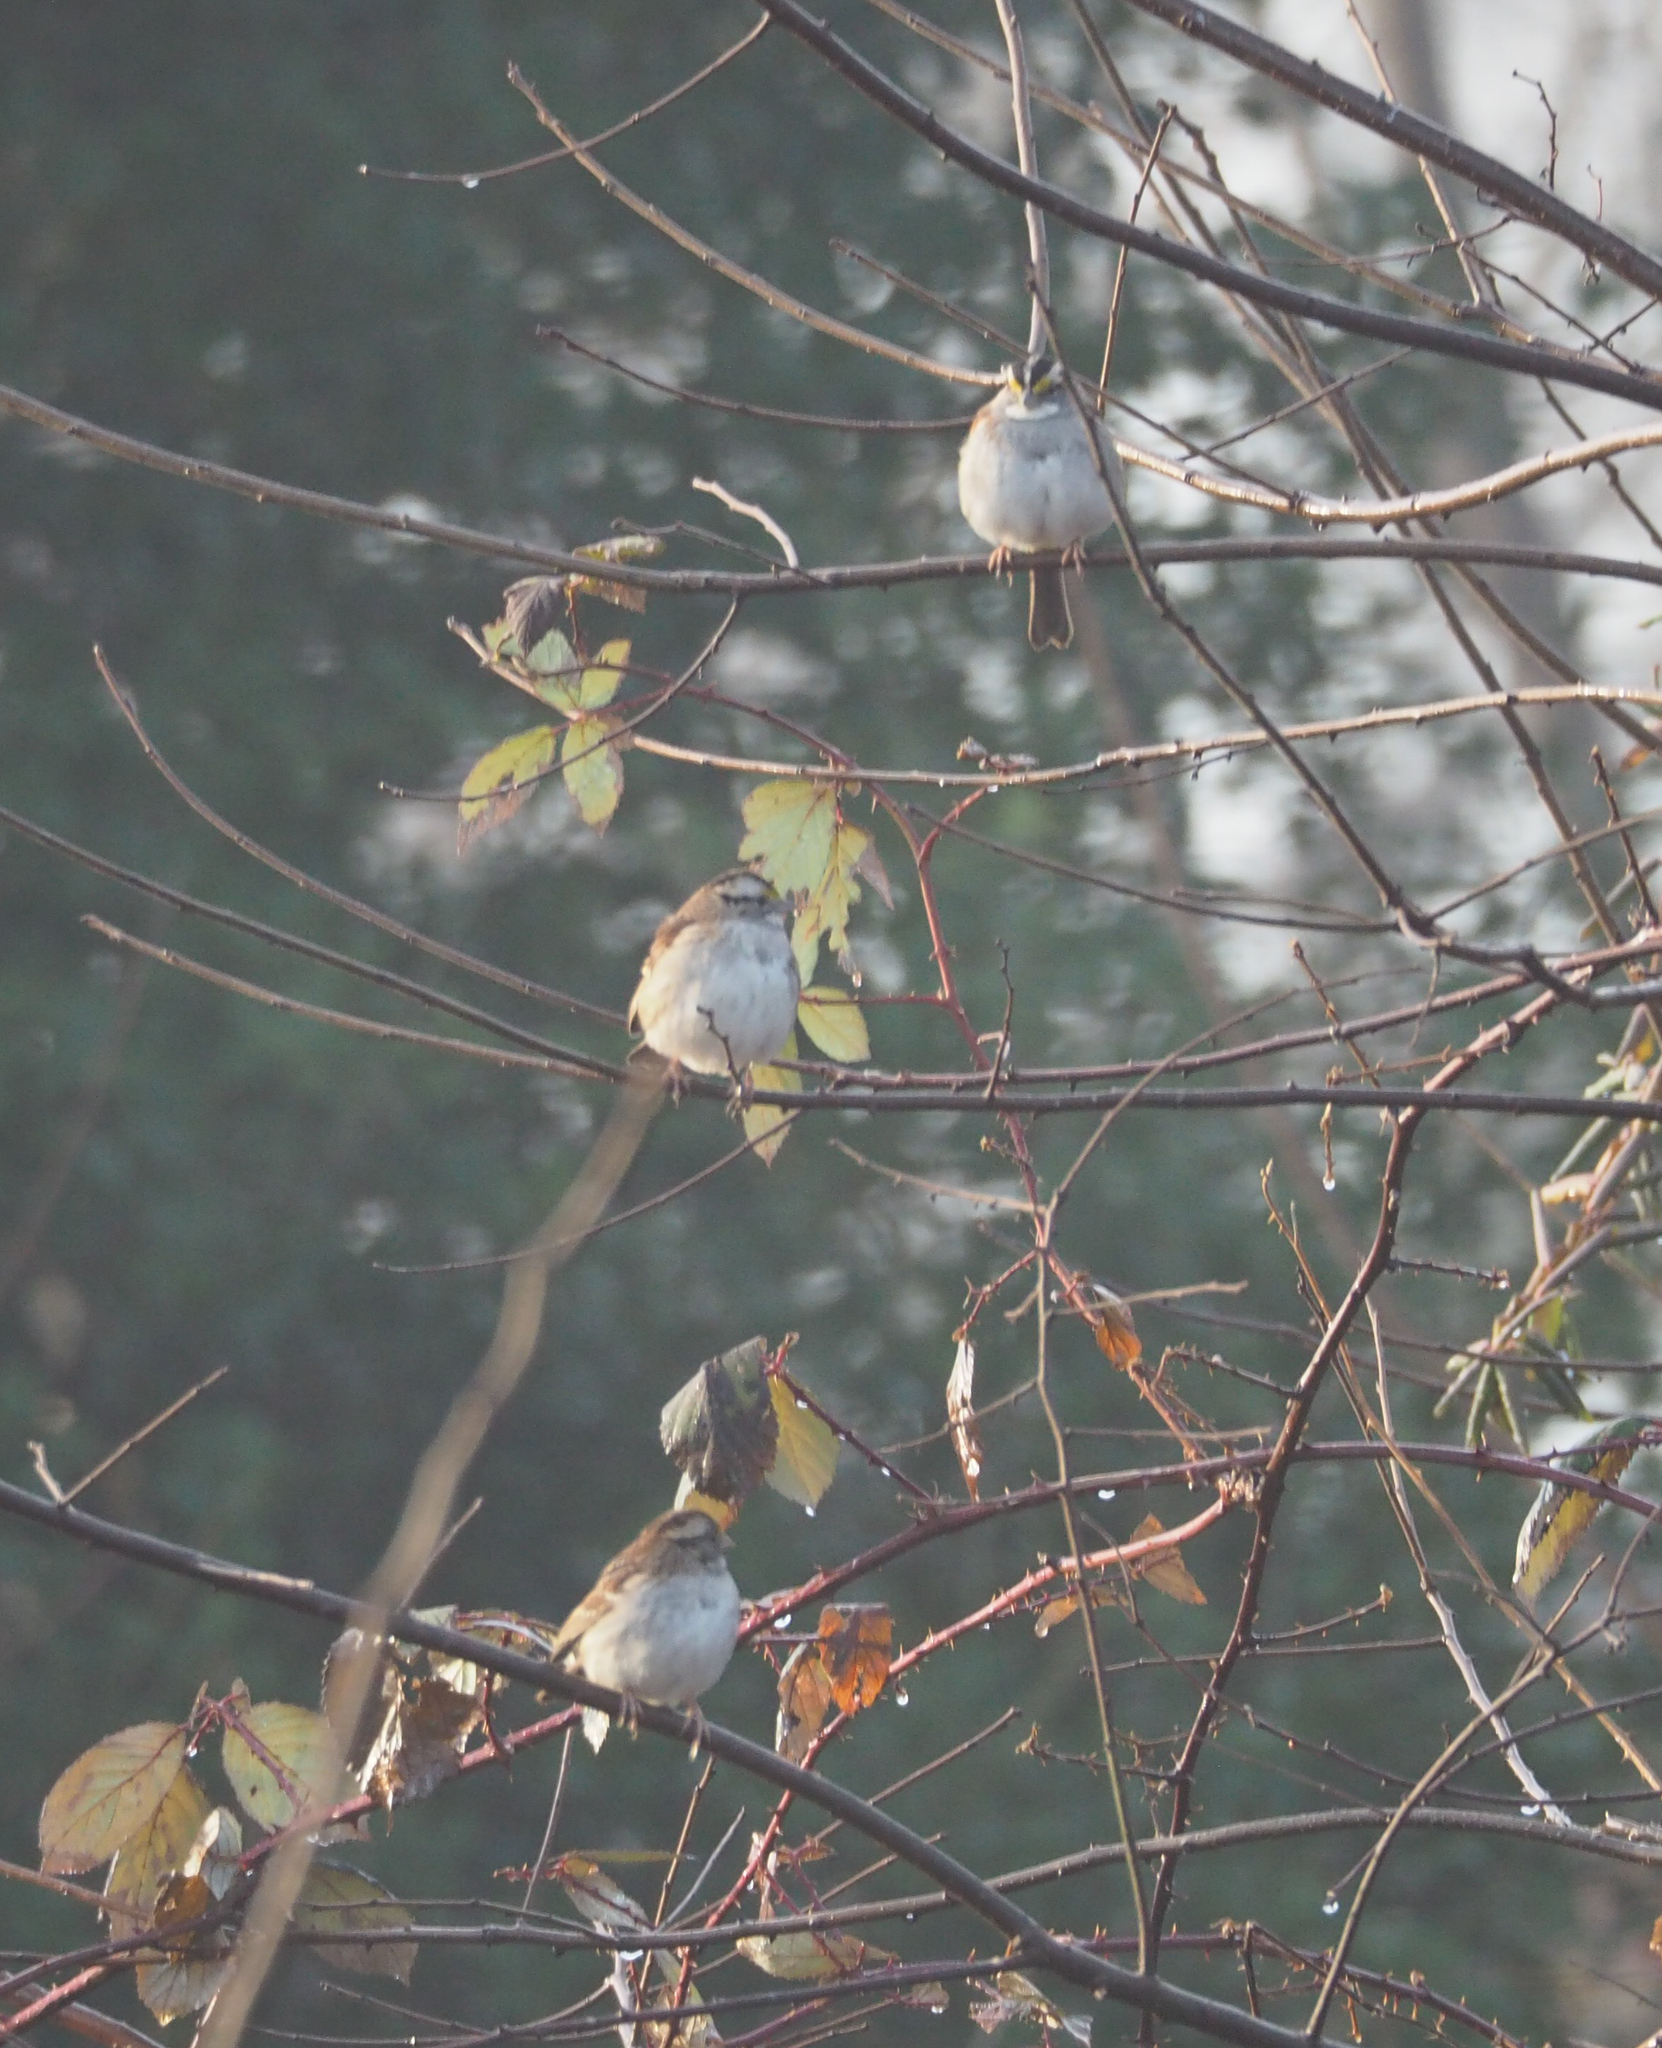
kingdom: Animalia
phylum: Chordata
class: Aves
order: Passeriformes
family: Passerellidae
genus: Zonotrichia
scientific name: Zonotrichia albicollis
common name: White-throated sparrow
